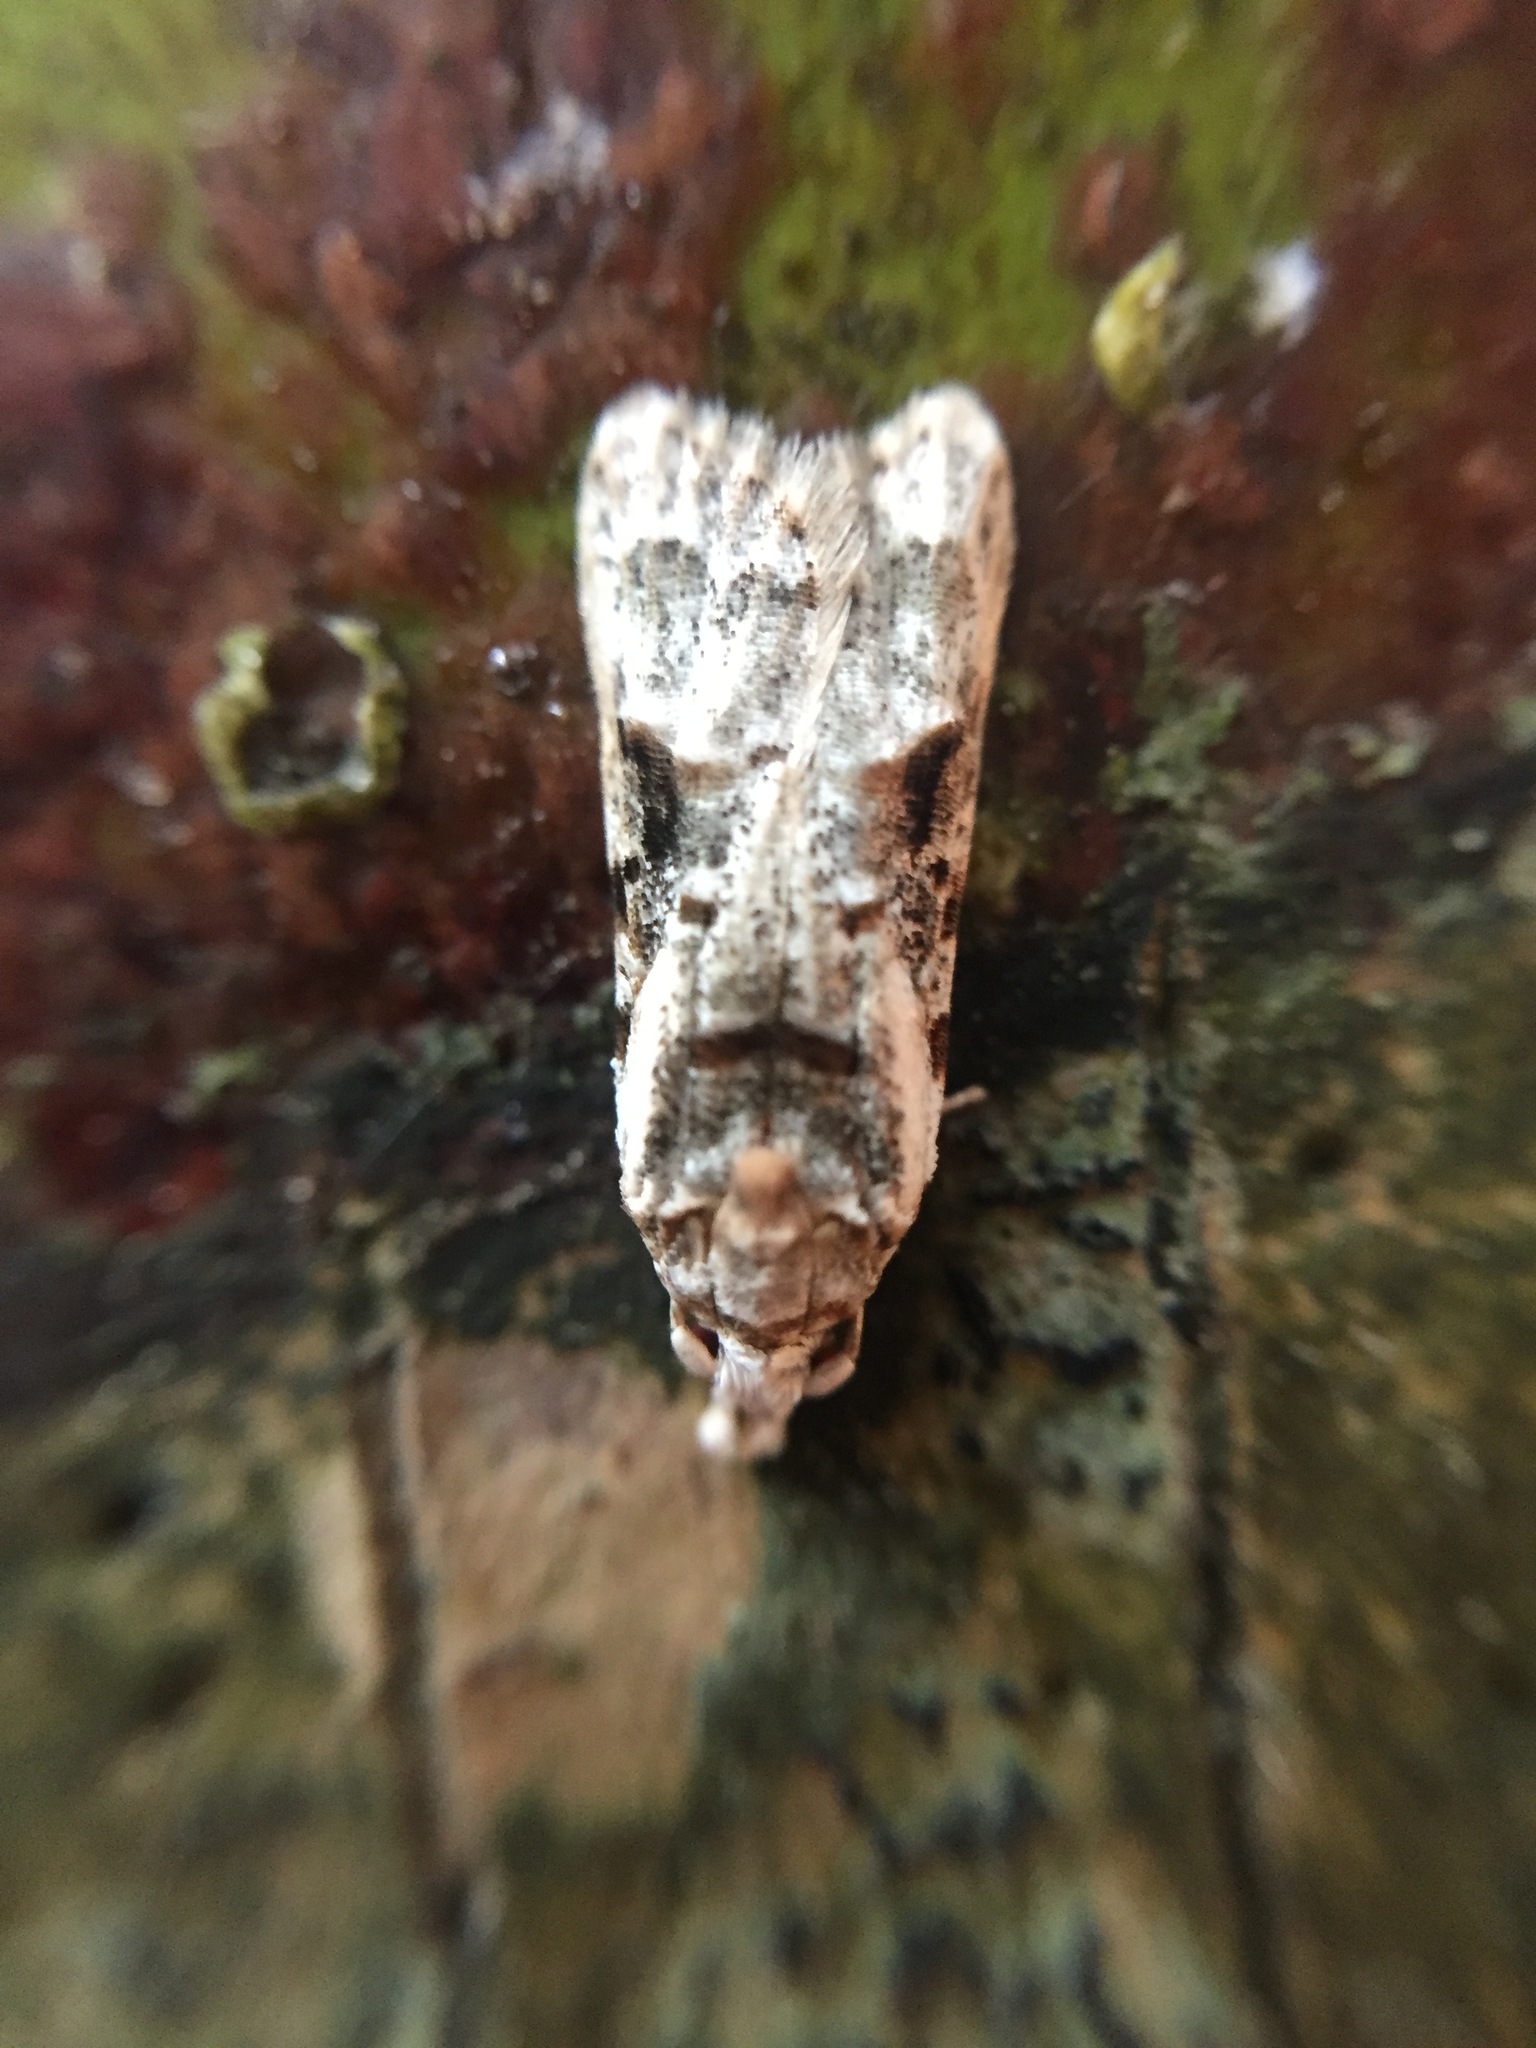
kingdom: Animalia
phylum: Arthropoda
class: Insecta
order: Lepidoptera
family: Carposinidae
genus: Coscinoptycha
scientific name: Coscinoptycha improbana
